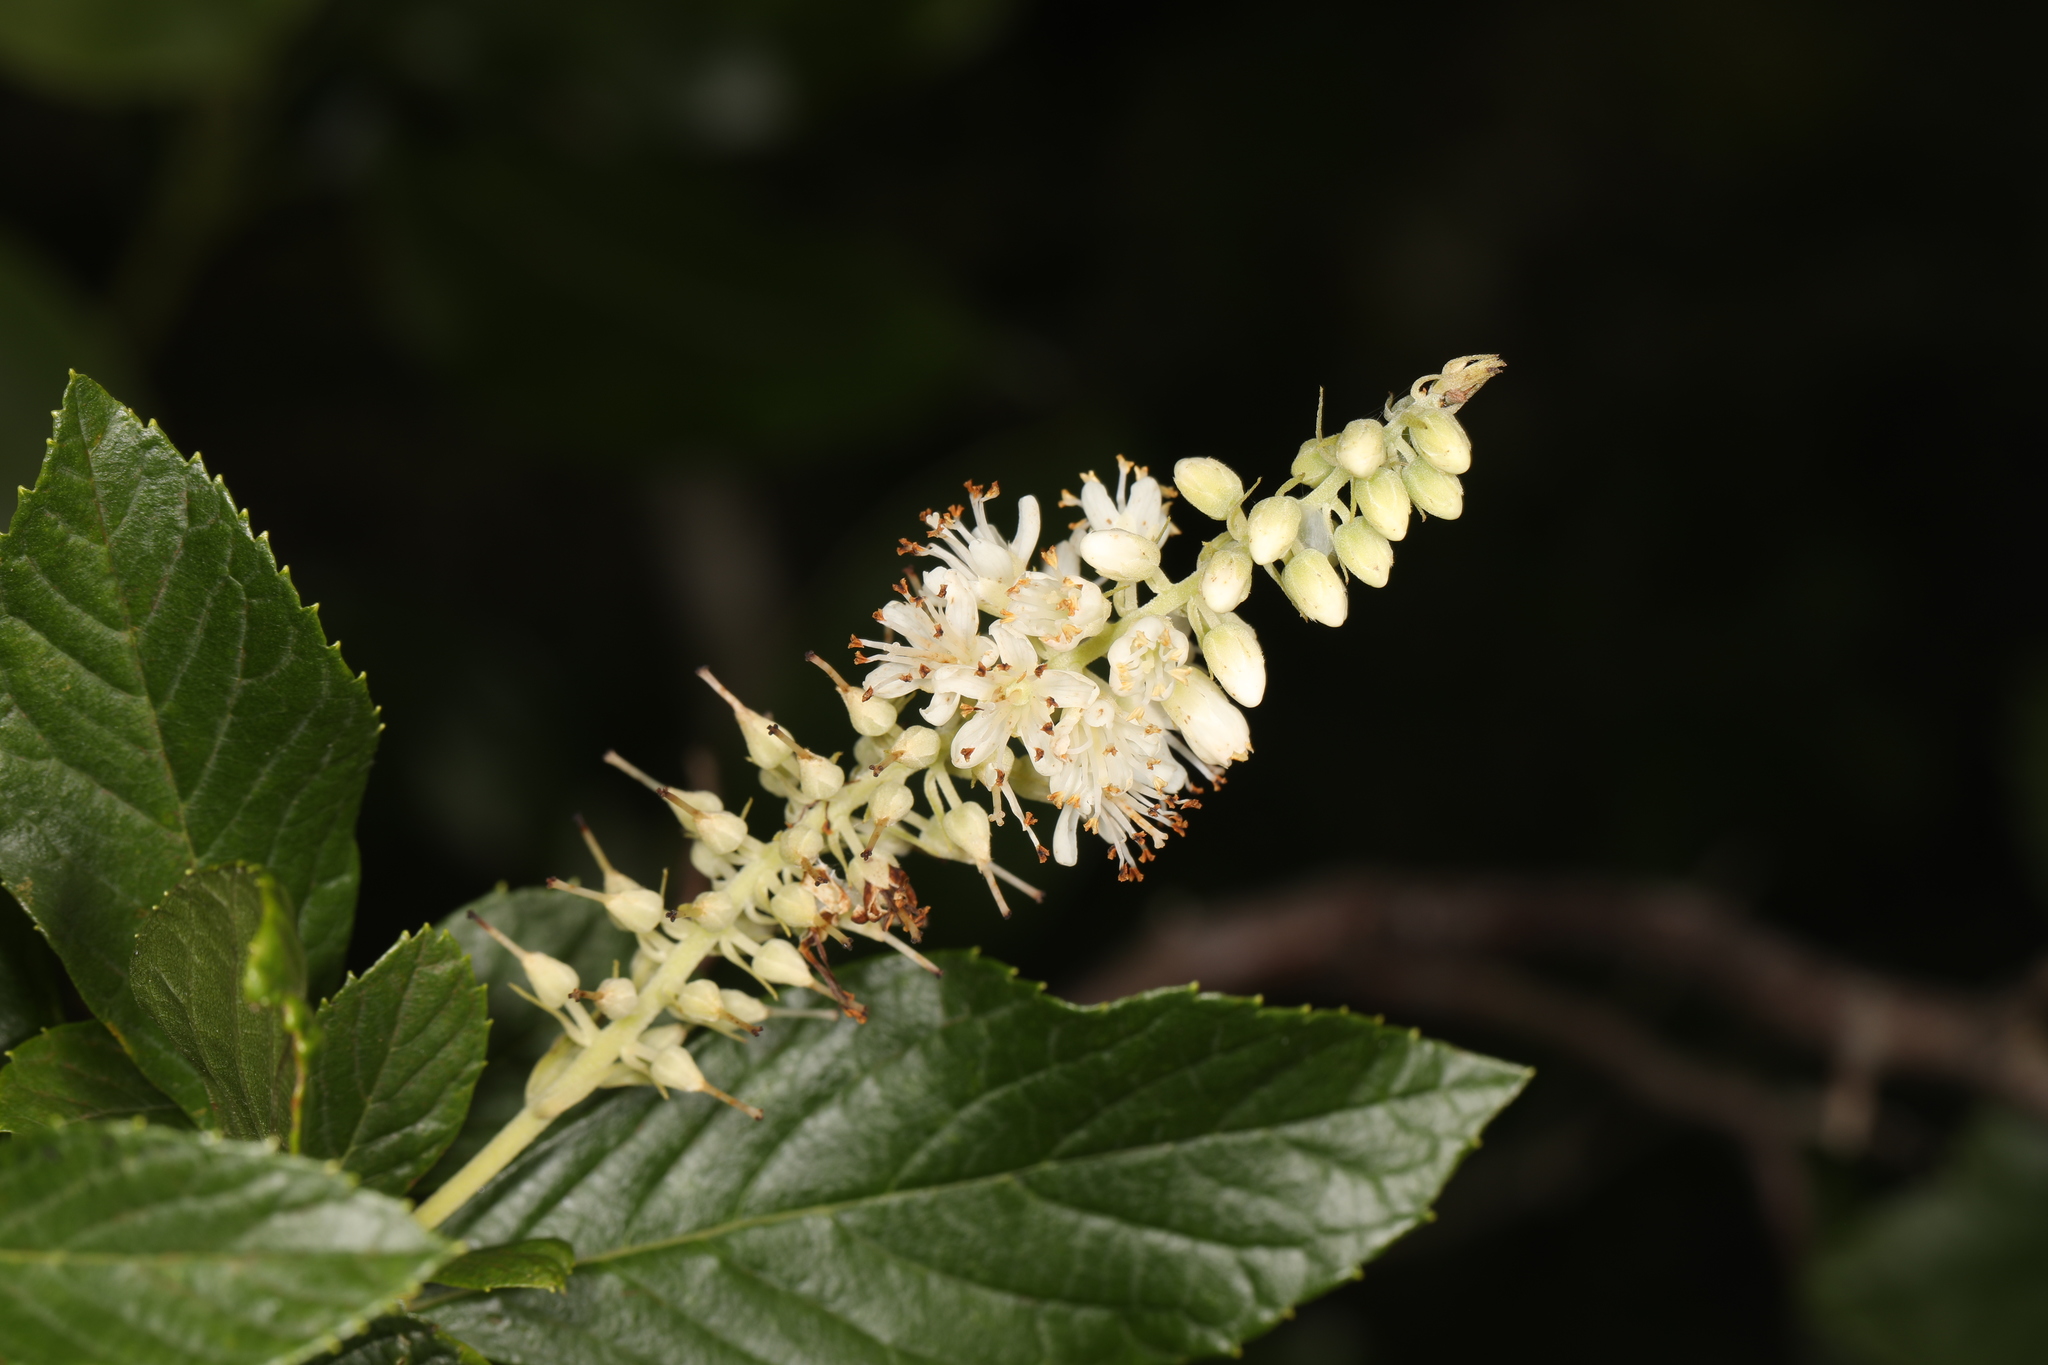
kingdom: Plantae
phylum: Tracheophyta
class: Magnoliopsida
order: Ericales
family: Clethraceae
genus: Clethra
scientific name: Clethra alnifolia
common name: Sweet pepperbush
